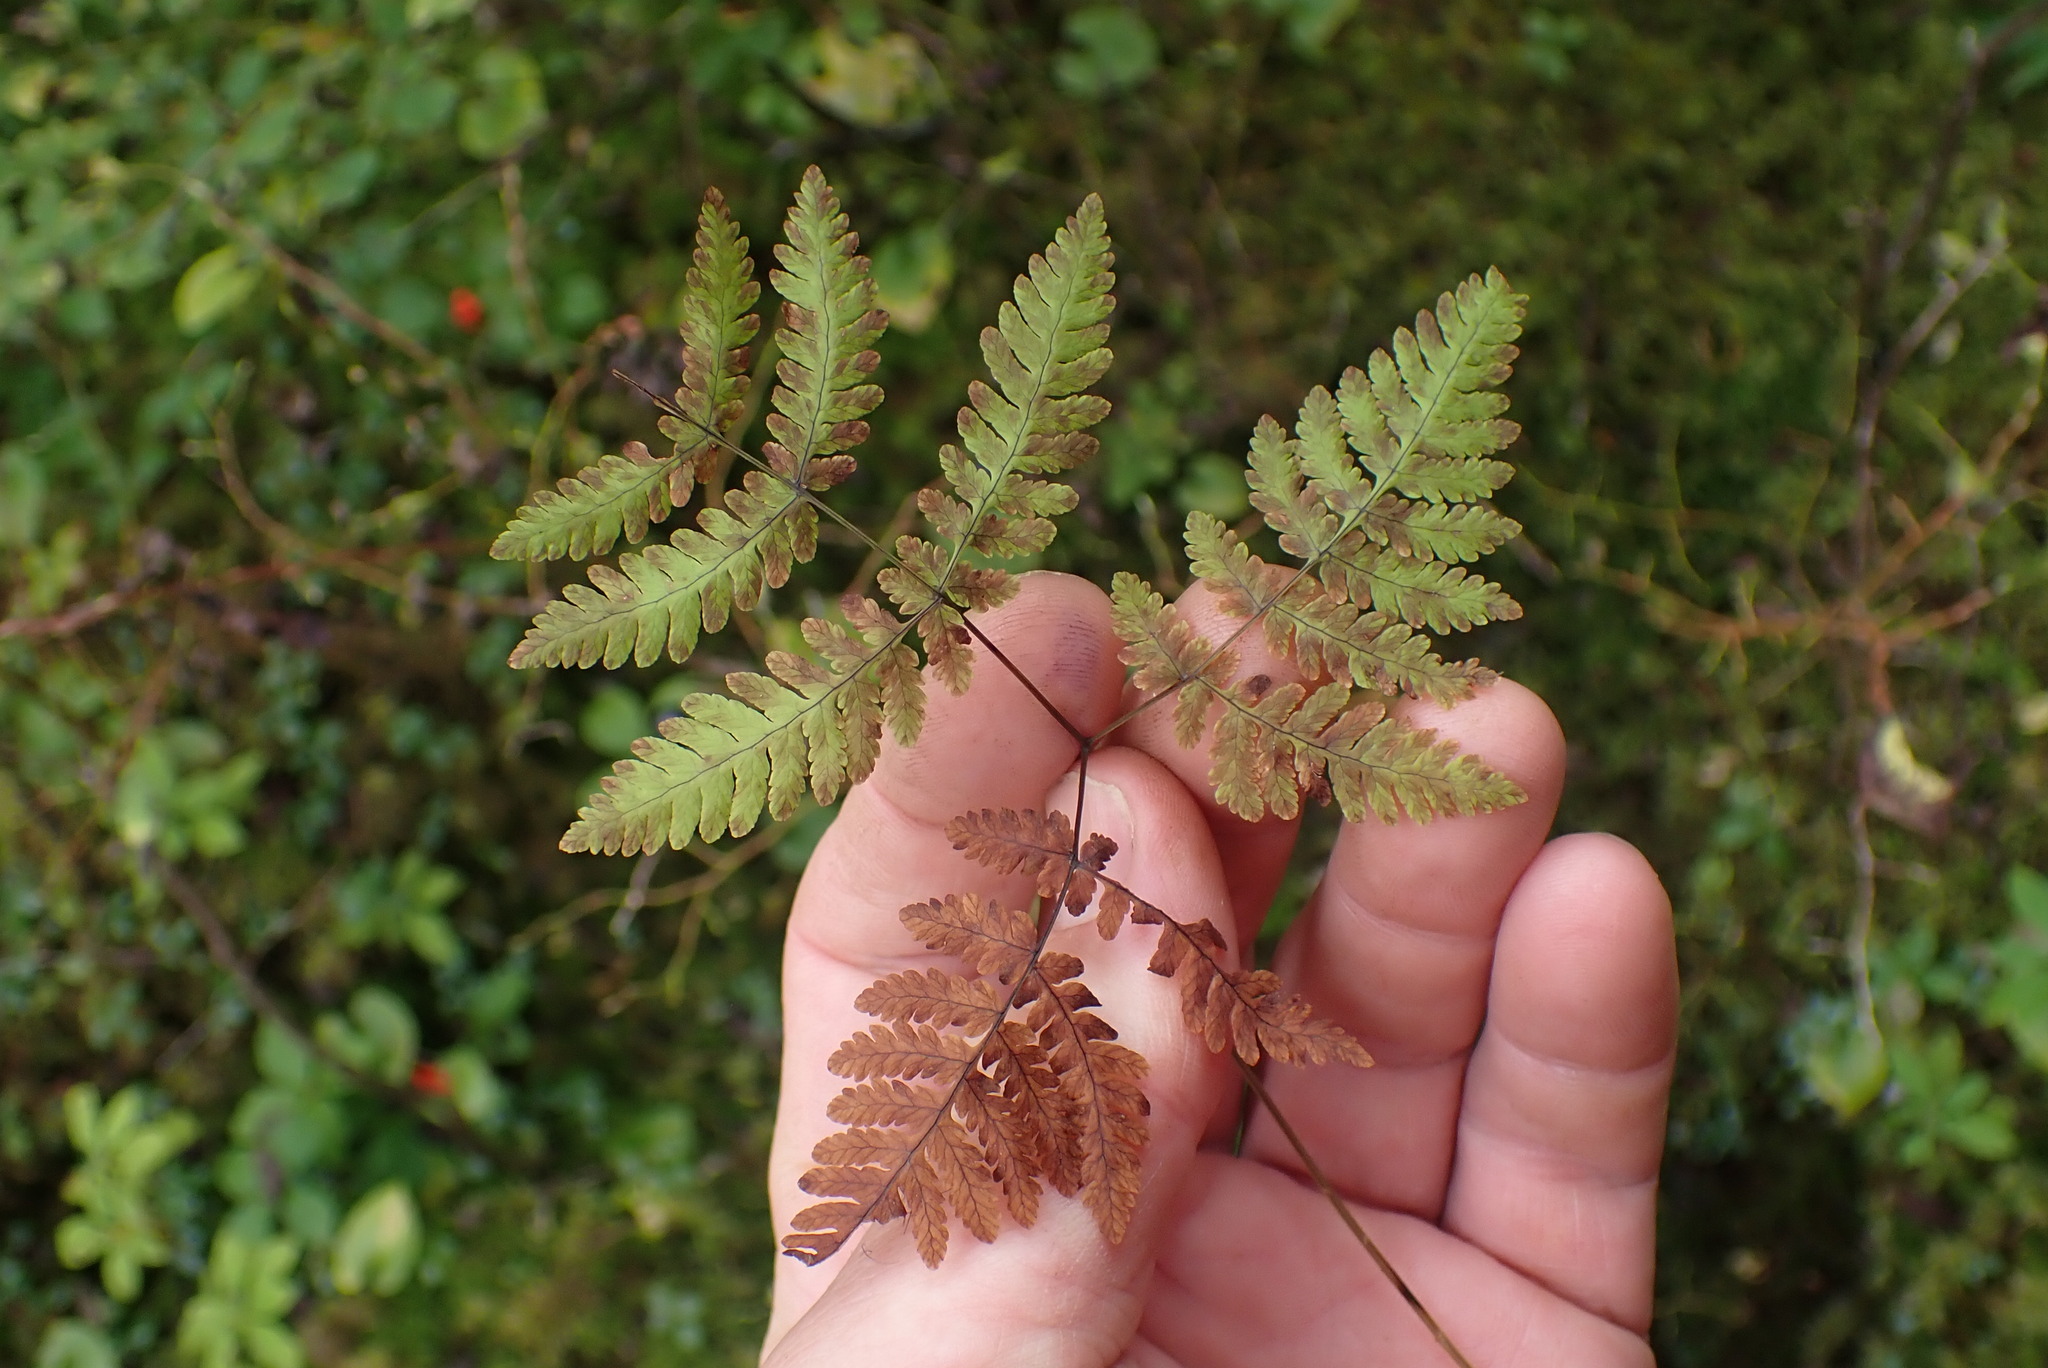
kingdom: Plantae
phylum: Tracheophyta
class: Polypodiopsida
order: Polypodiales
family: Cystopteridaceae
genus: Gymnocarpium
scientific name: Gymnocarpium disjunctum
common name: Western oak fern
